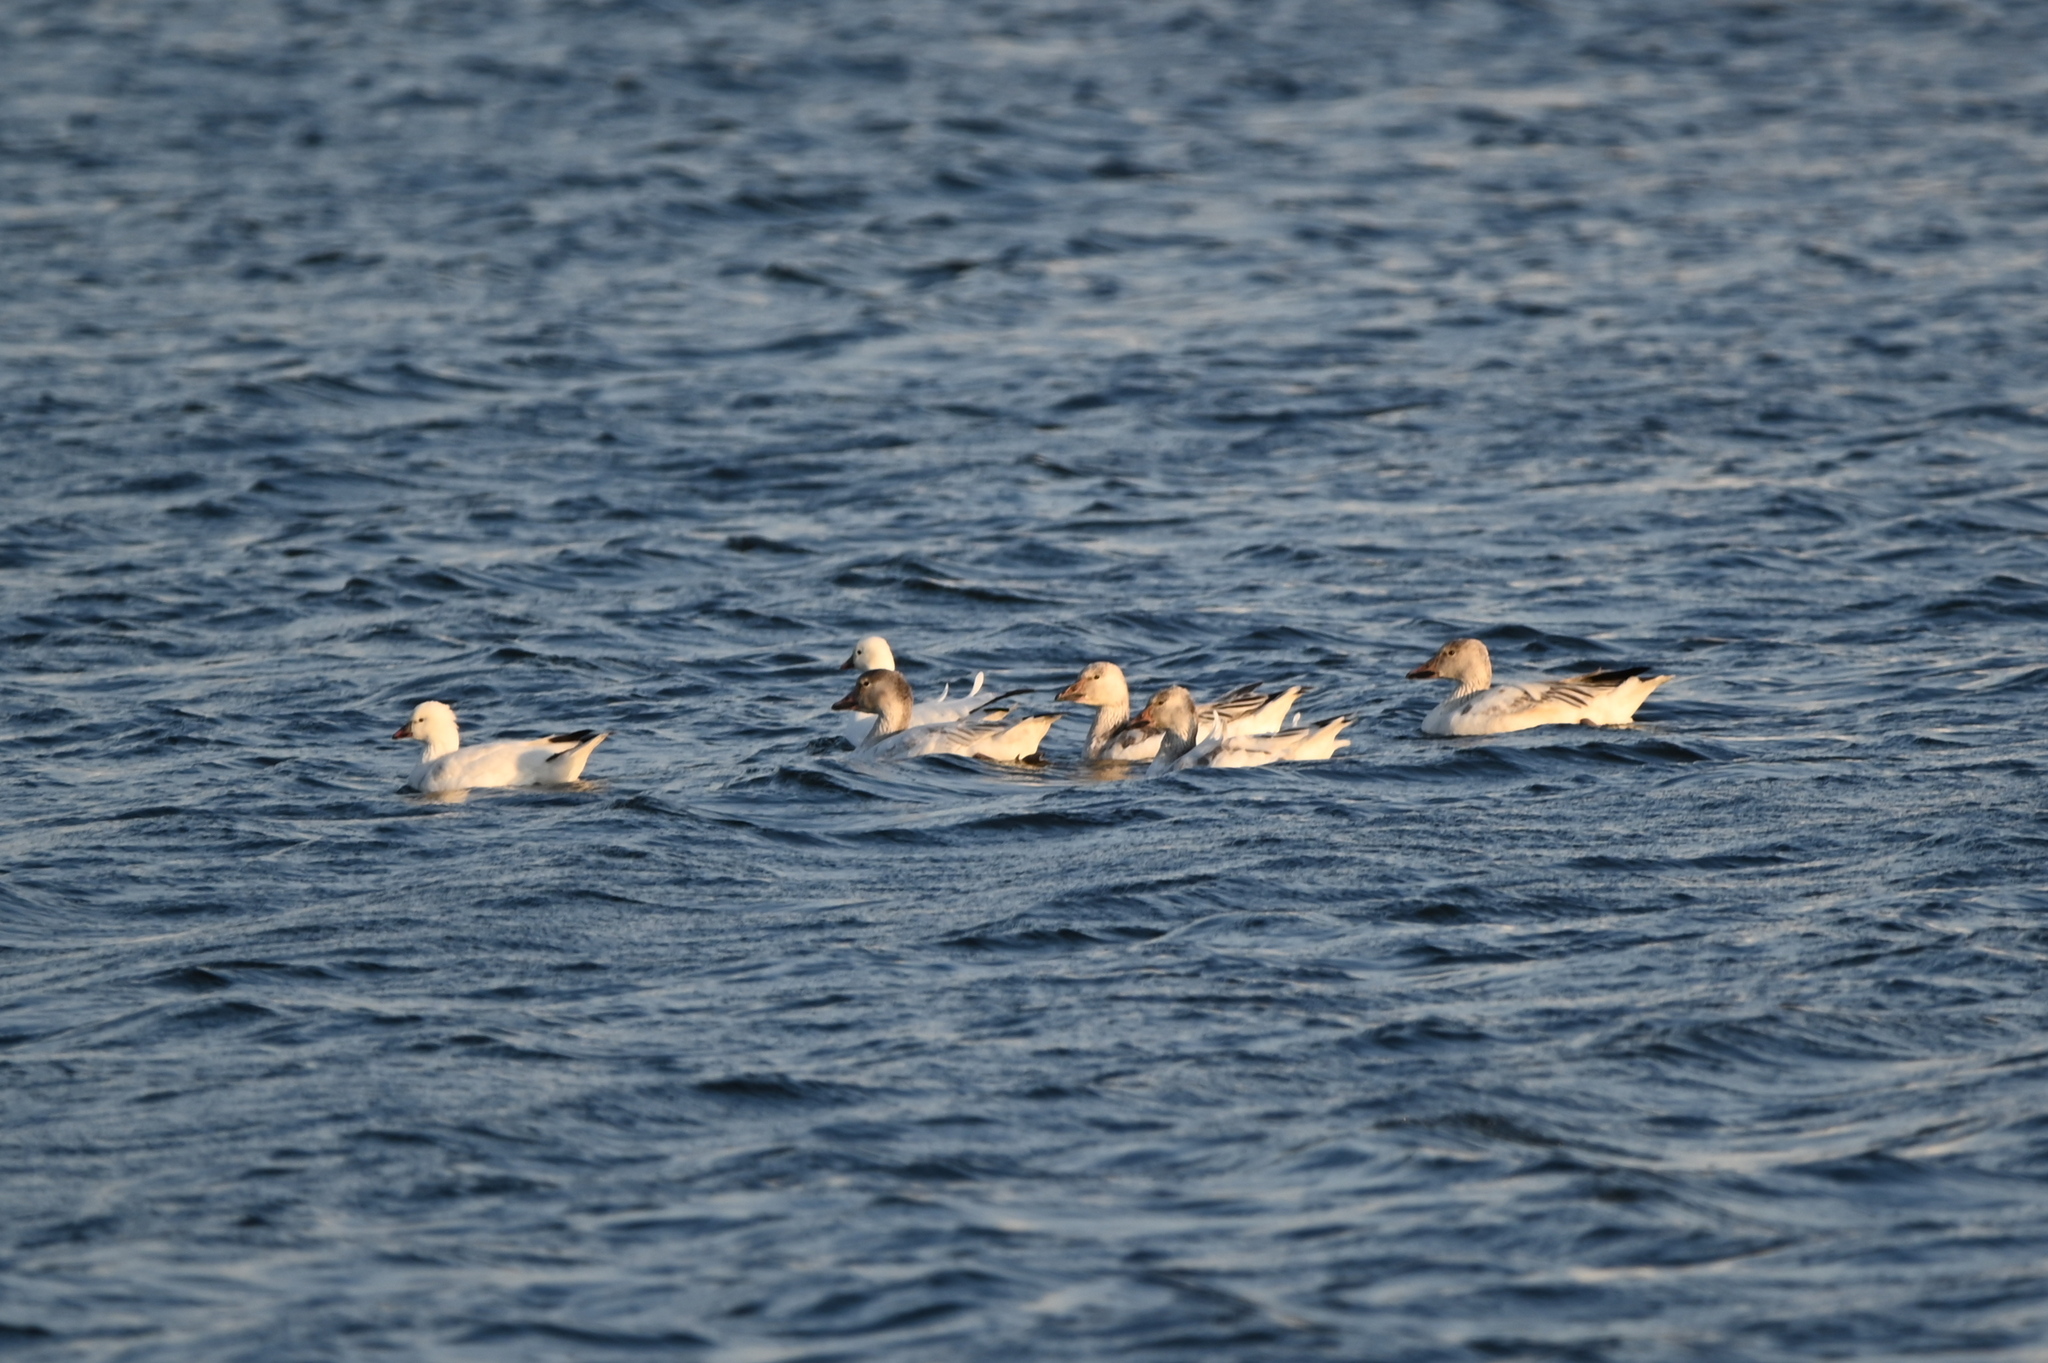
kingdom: Animalia
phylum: Chordata
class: Aves
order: Anseriformes
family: Anatidae
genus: Anser
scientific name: Anser rossii
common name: Ross's goose
